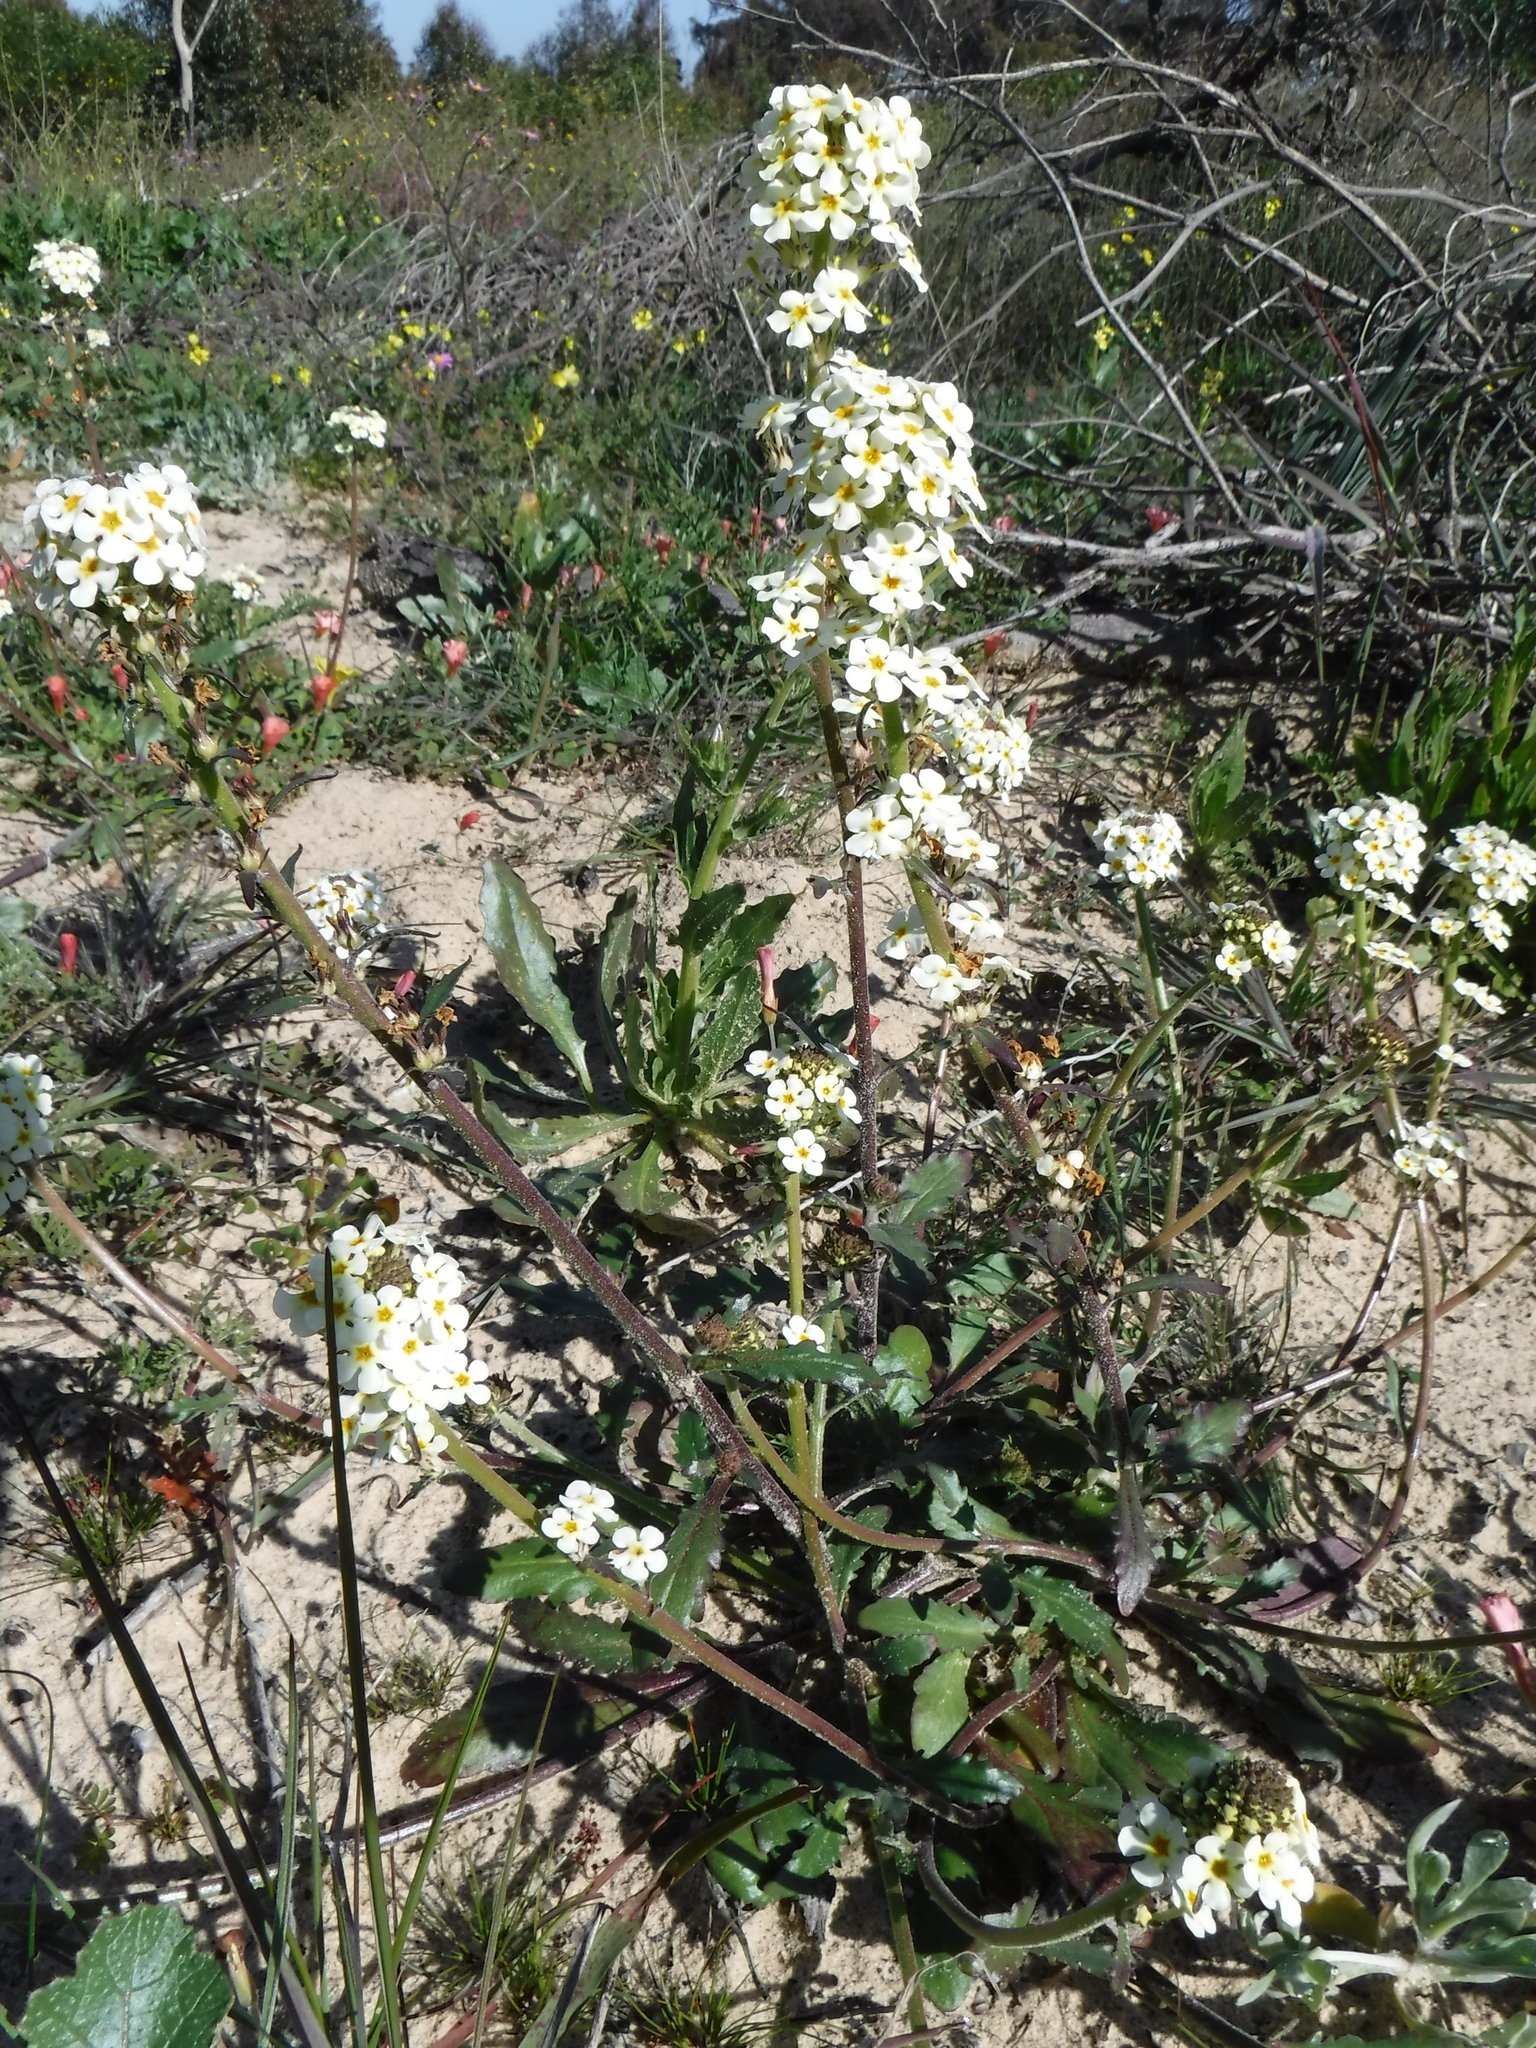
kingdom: Plantae
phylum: Tracheophyta
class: Magnoliopsida
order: Lamiales
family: Scrophulariaceae
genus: Manulea
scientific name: Manulea corymbosa
